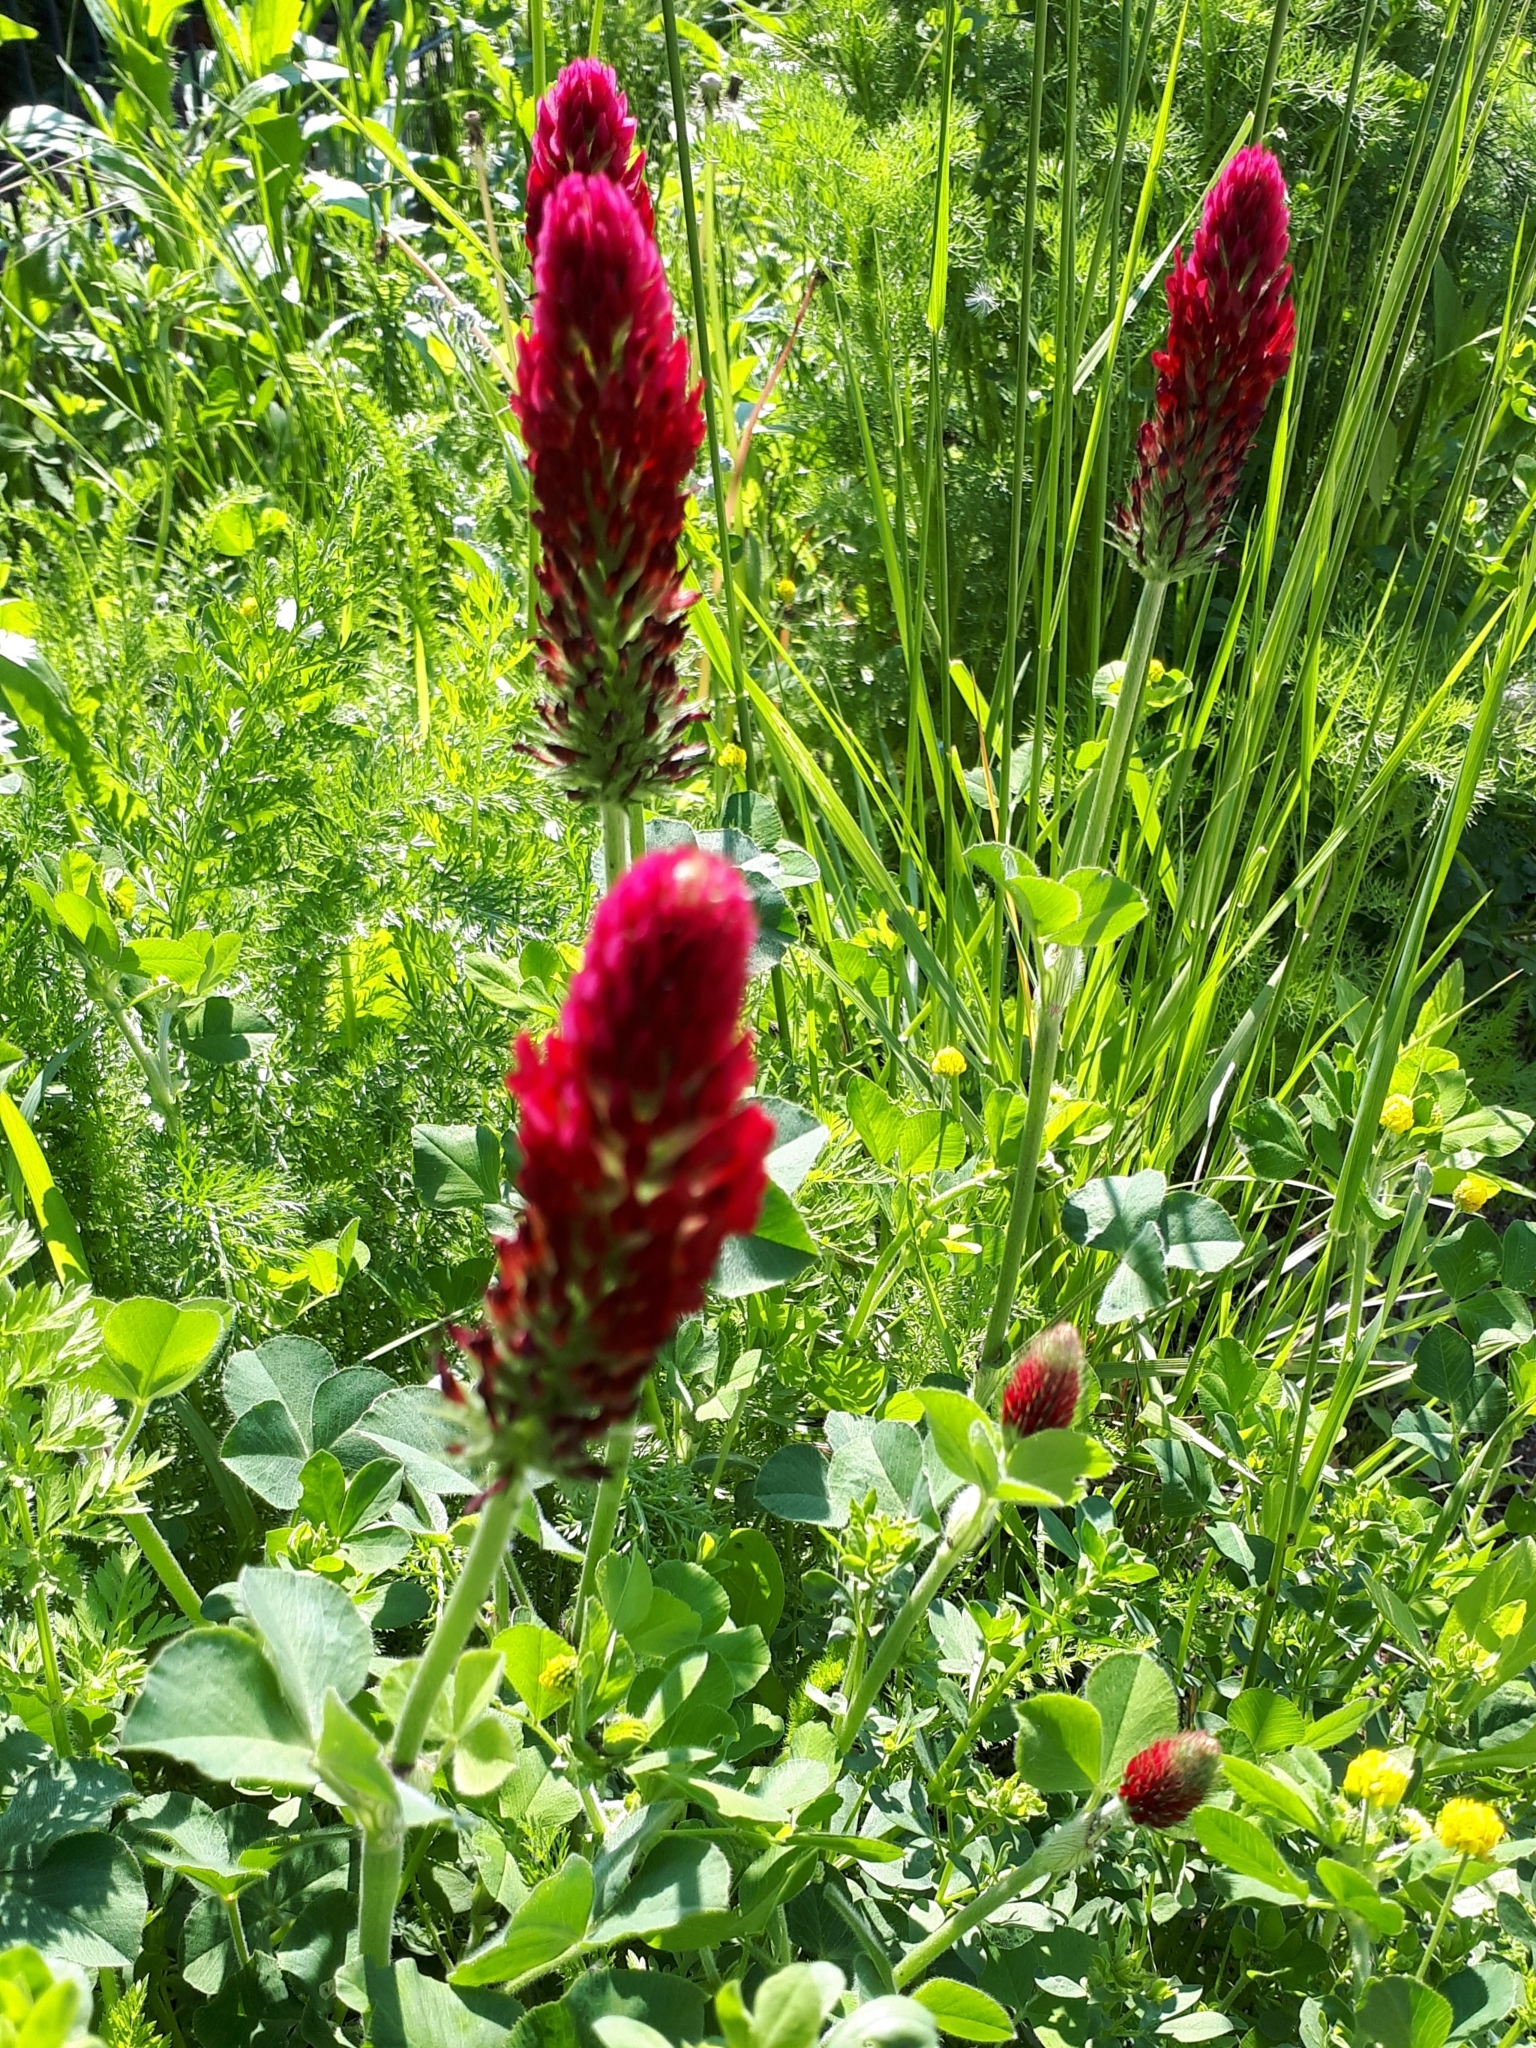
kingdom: Plantae
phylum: Tracheophyta
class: Magnoliopsida
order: Fabales
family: Fabaceae
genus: Trifolium
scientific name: Trifolium incarnatum
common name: Crimson clover
